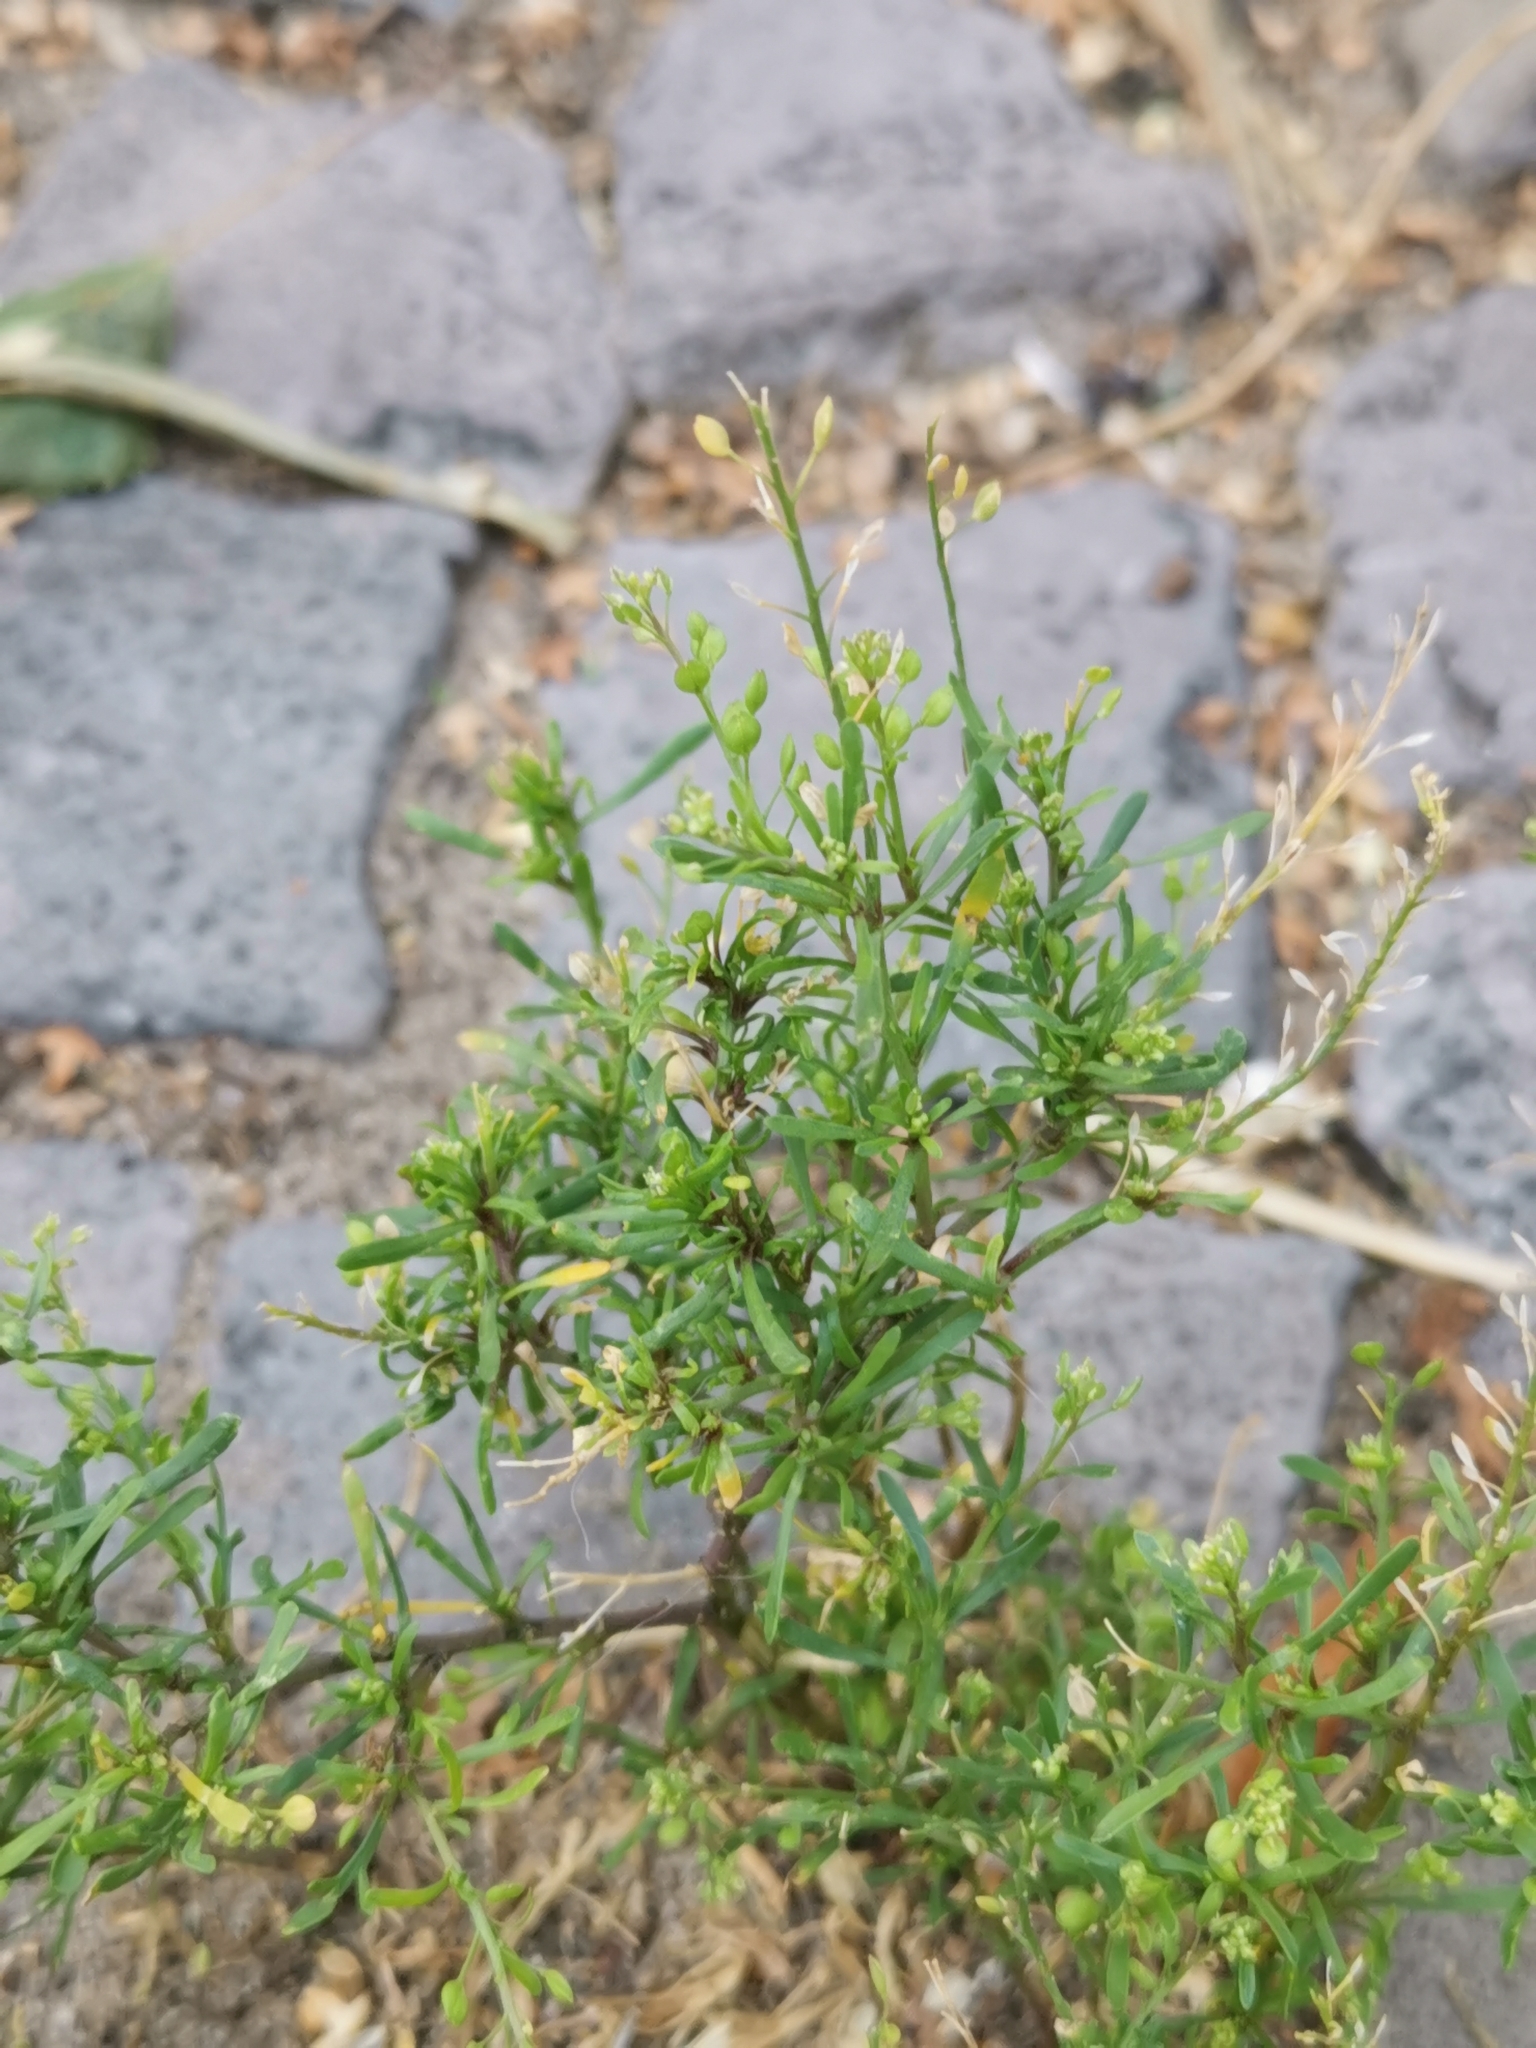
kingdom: Plantae
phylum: Tracheophyta
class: Magnoliopsida
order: Brassicales
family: Brassicaceae
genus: Lepidium
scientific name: Lepidium ruderale
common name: Narrow-leaved pepperwort
